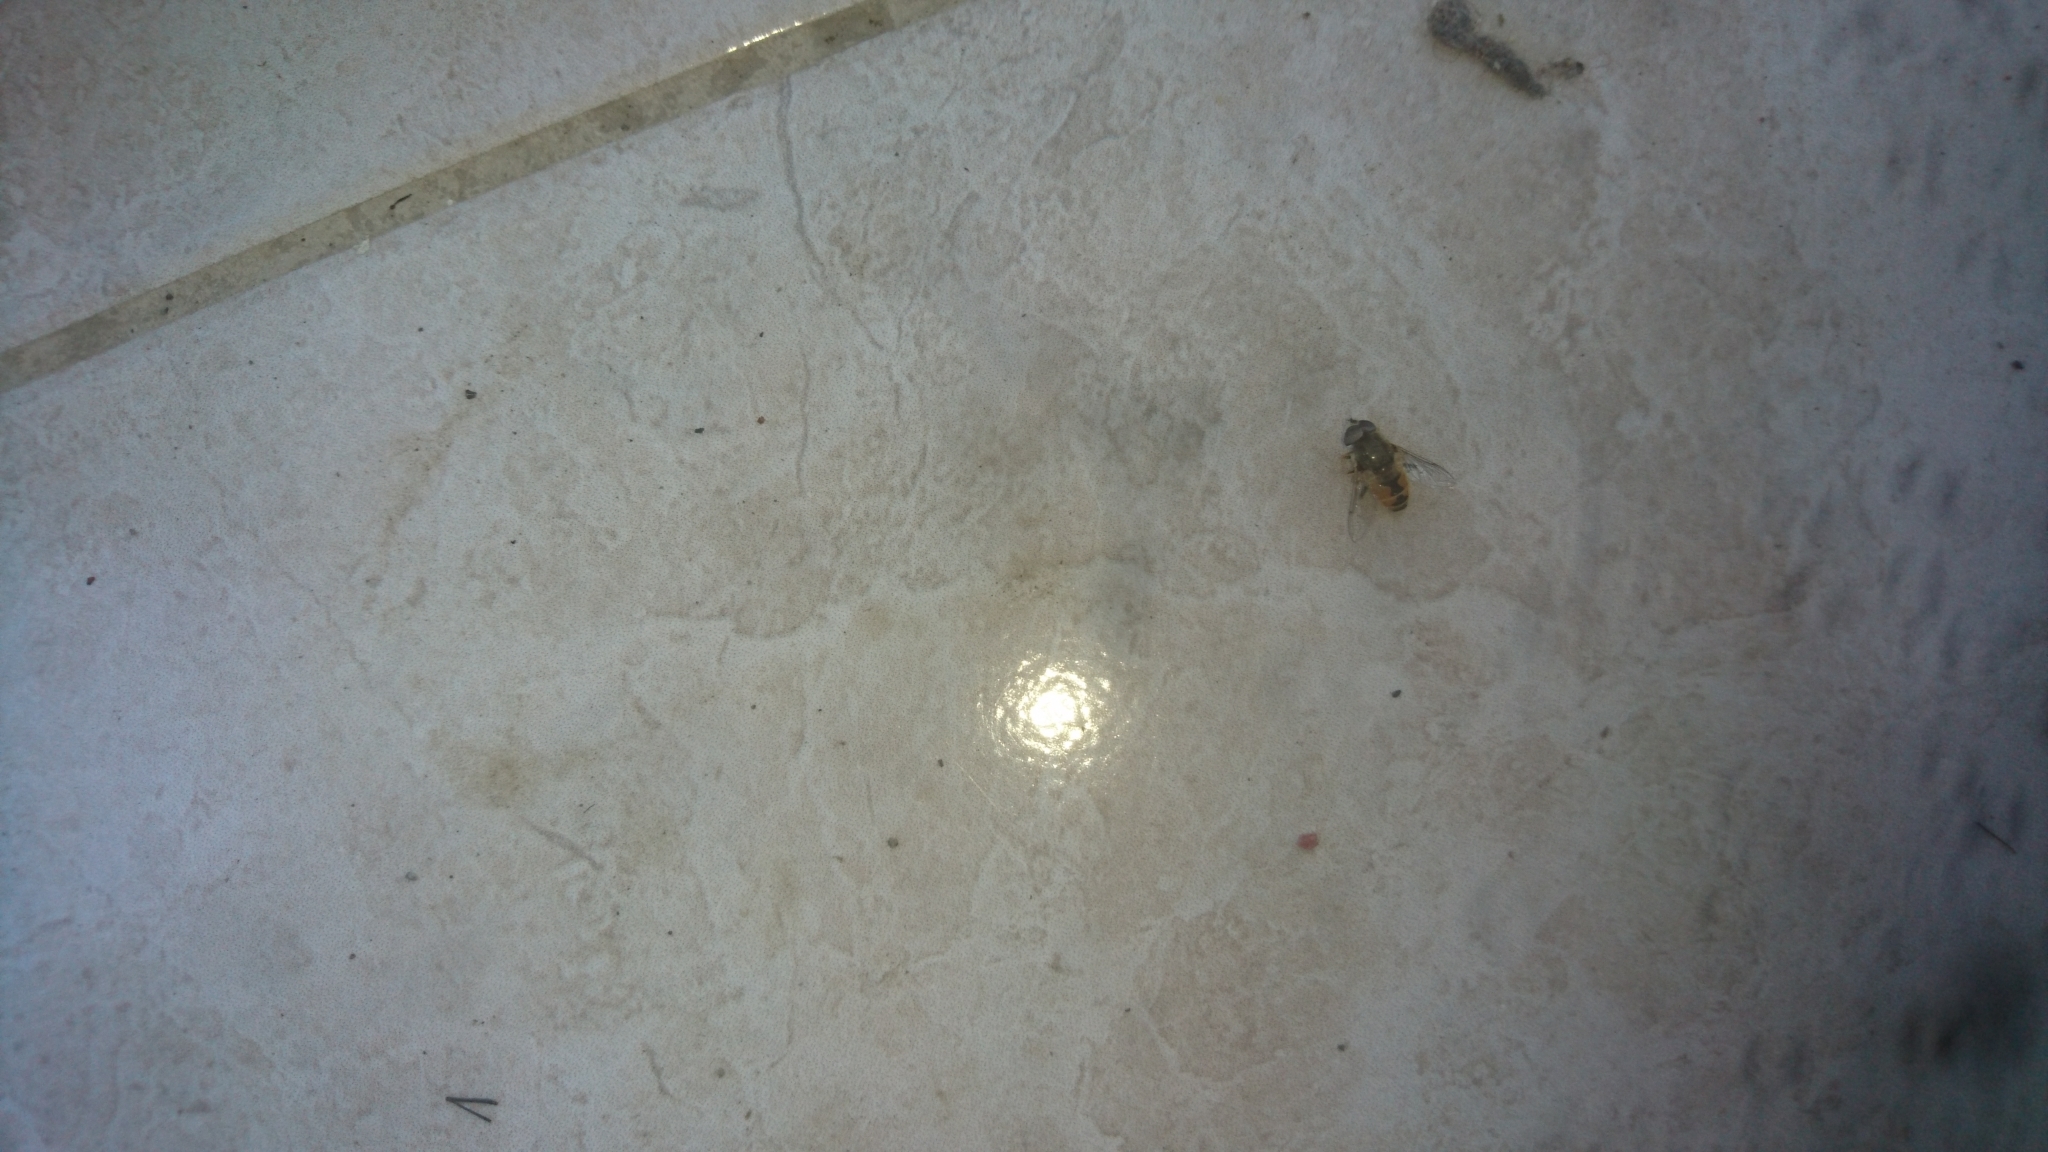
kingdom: Animalia
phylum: Arthropoda
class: Insecta
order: Diptera
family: Syrphidae
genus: Eristalis
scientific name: Eristalis arbustorum
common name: Hover fly
